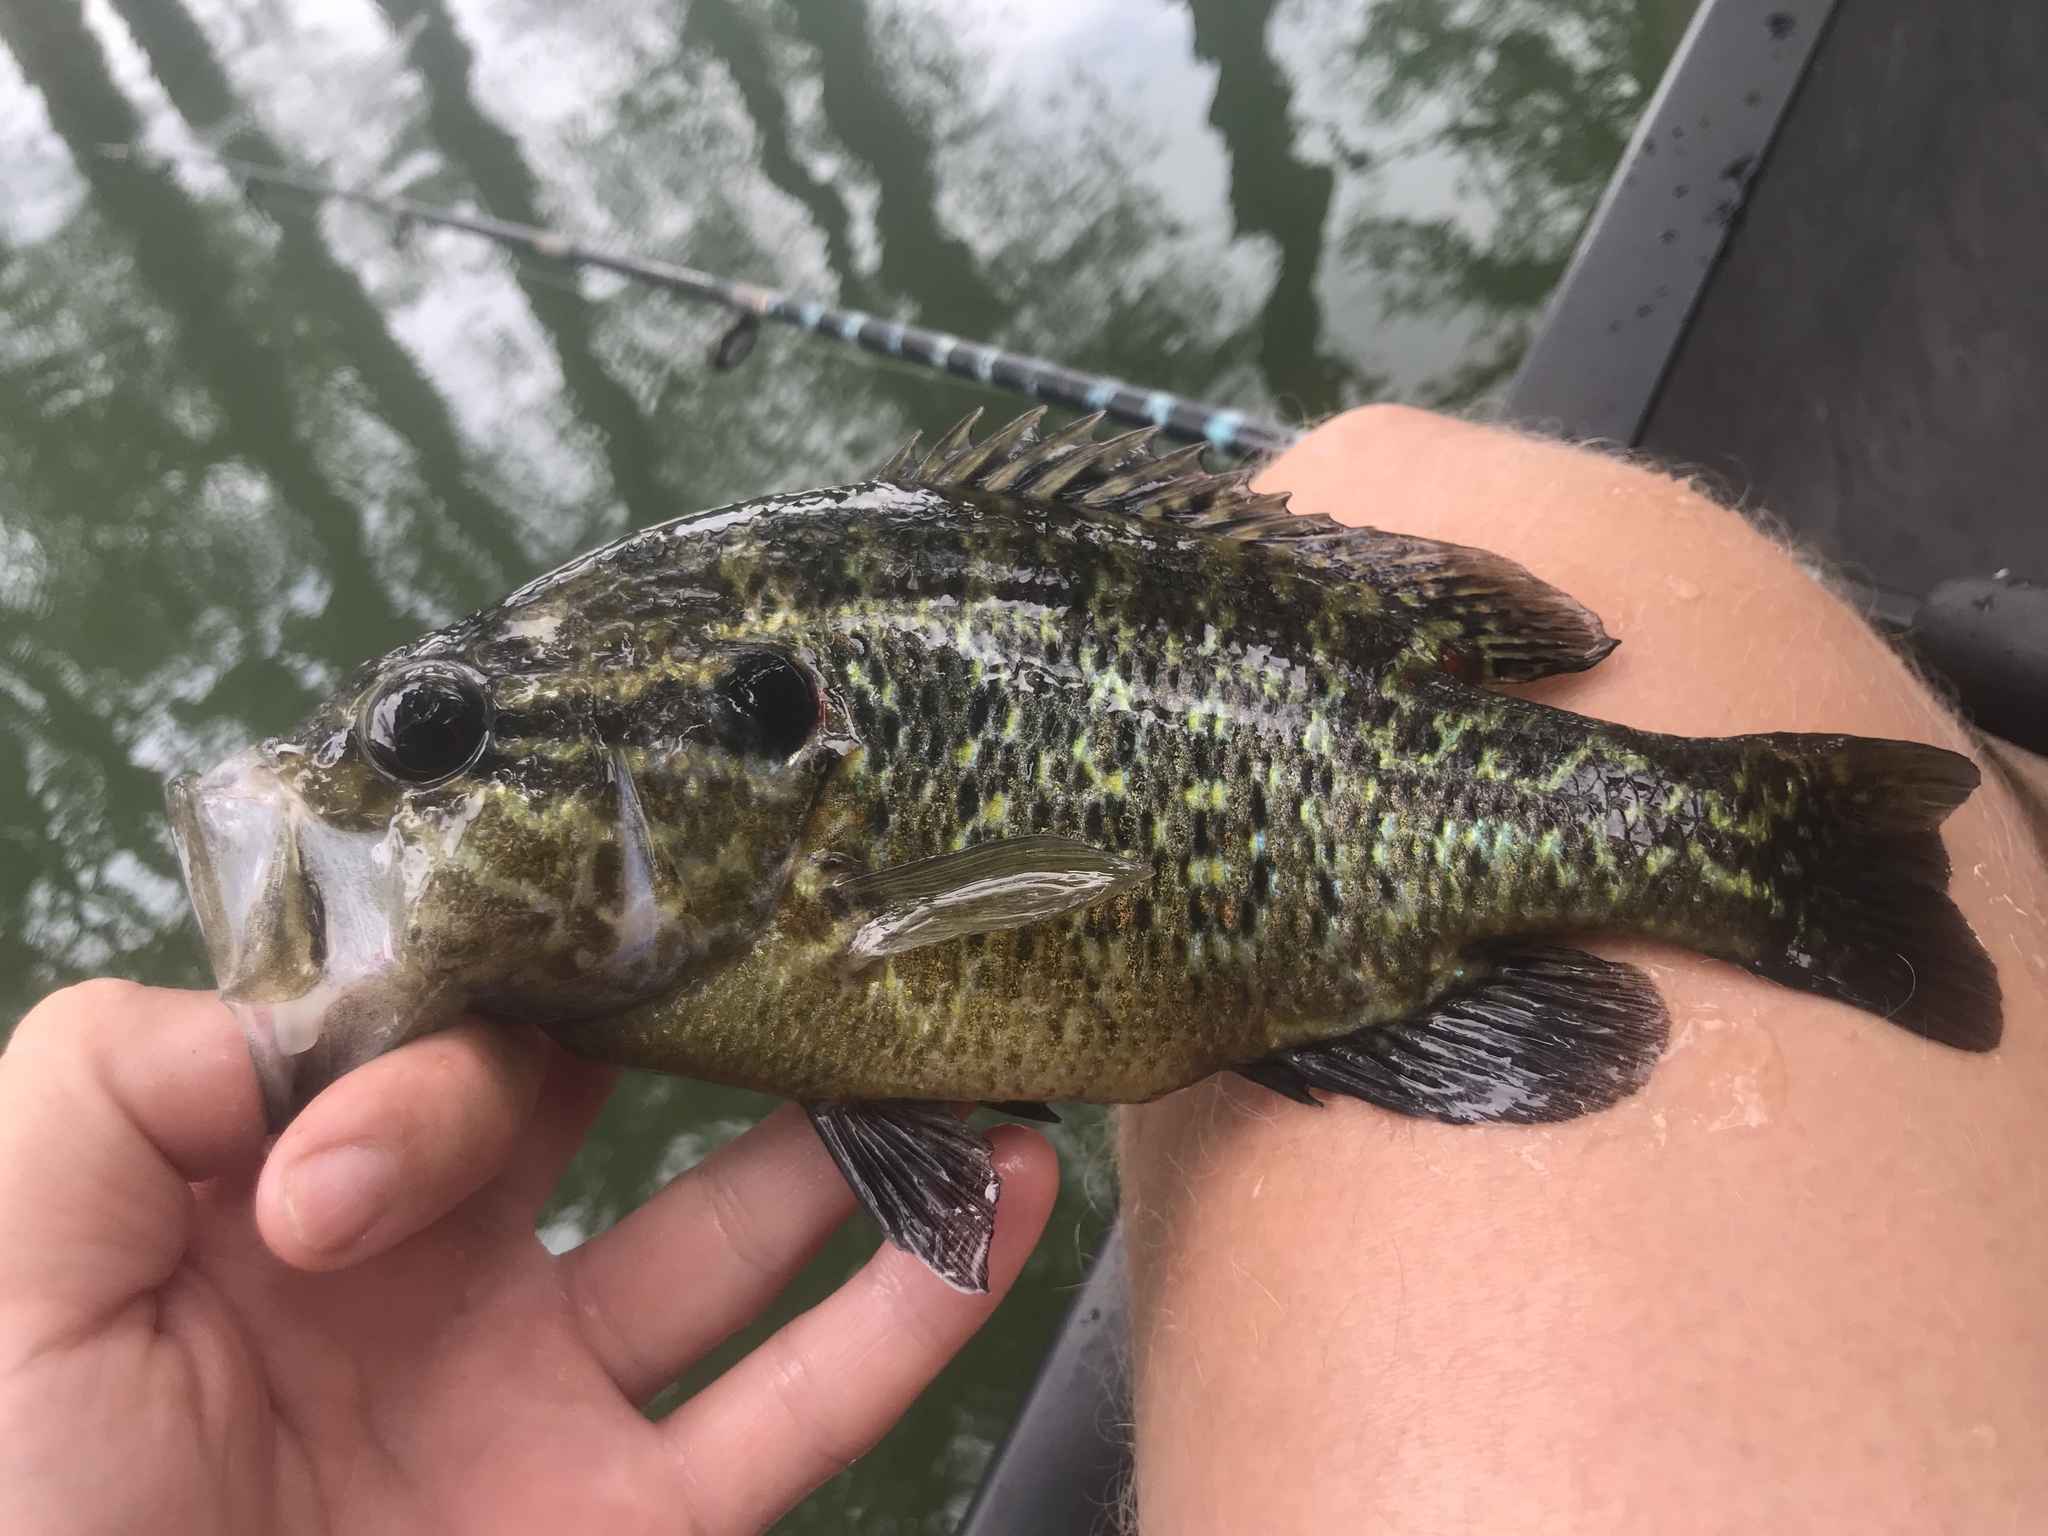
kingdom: Animalia
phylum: Chordata
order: Perciformes
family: Centrarchidae
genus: Lepomis
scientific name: Lepomis gulosus
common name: Warmouth
